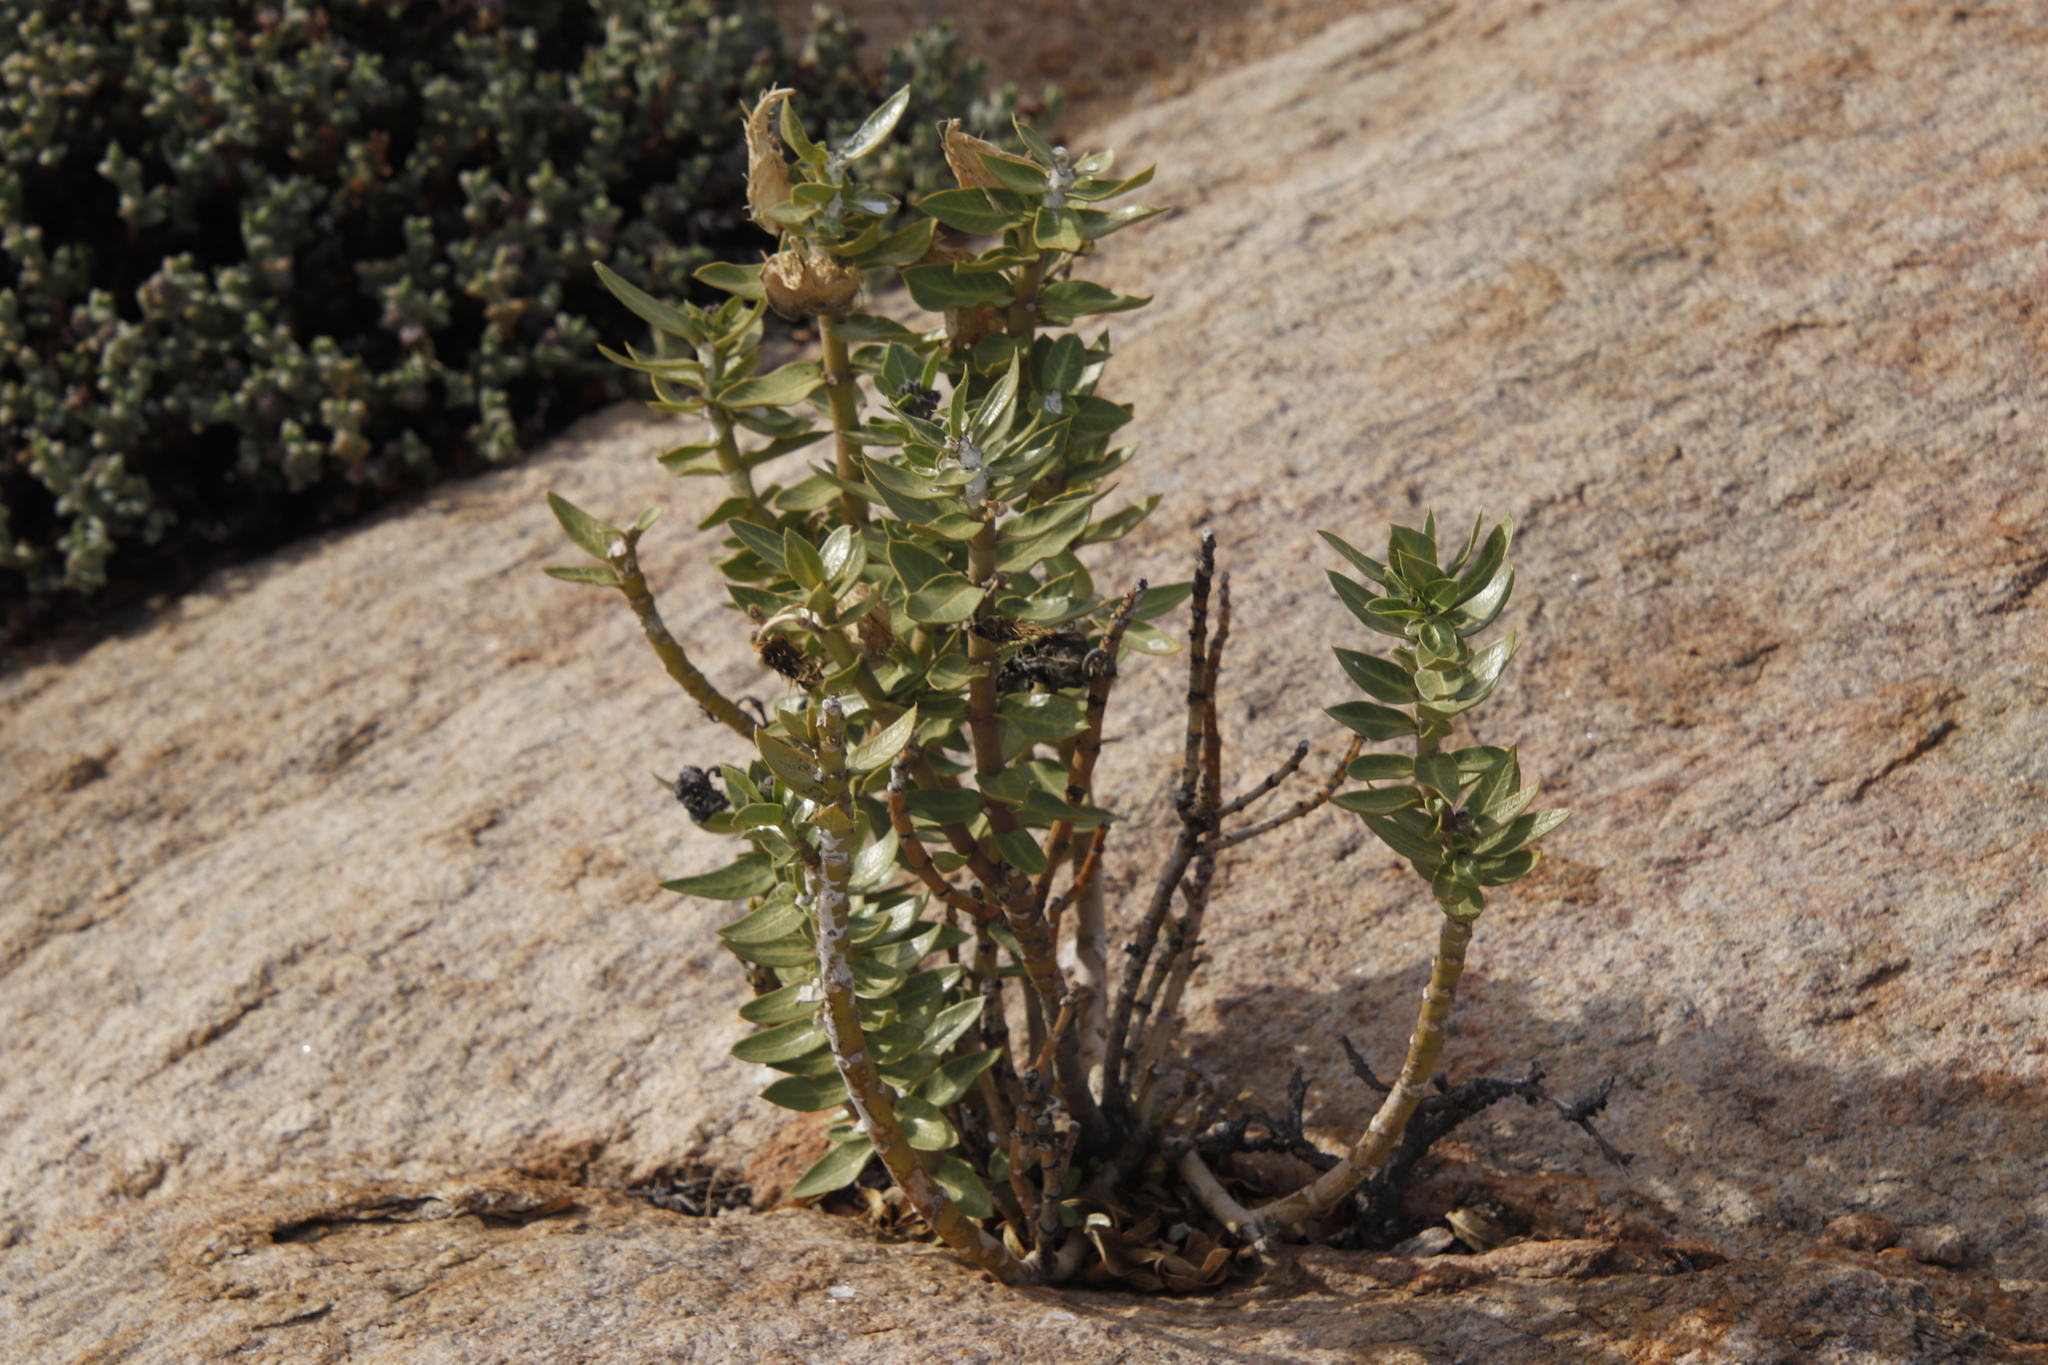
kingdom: Plantae
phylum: Tracheophyta
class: Magnoliopsida
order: Gentianales
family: Apocynaceae
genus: Gomphocarpus
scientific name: Gomphocarpus cancellatus
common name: Wild cotton
